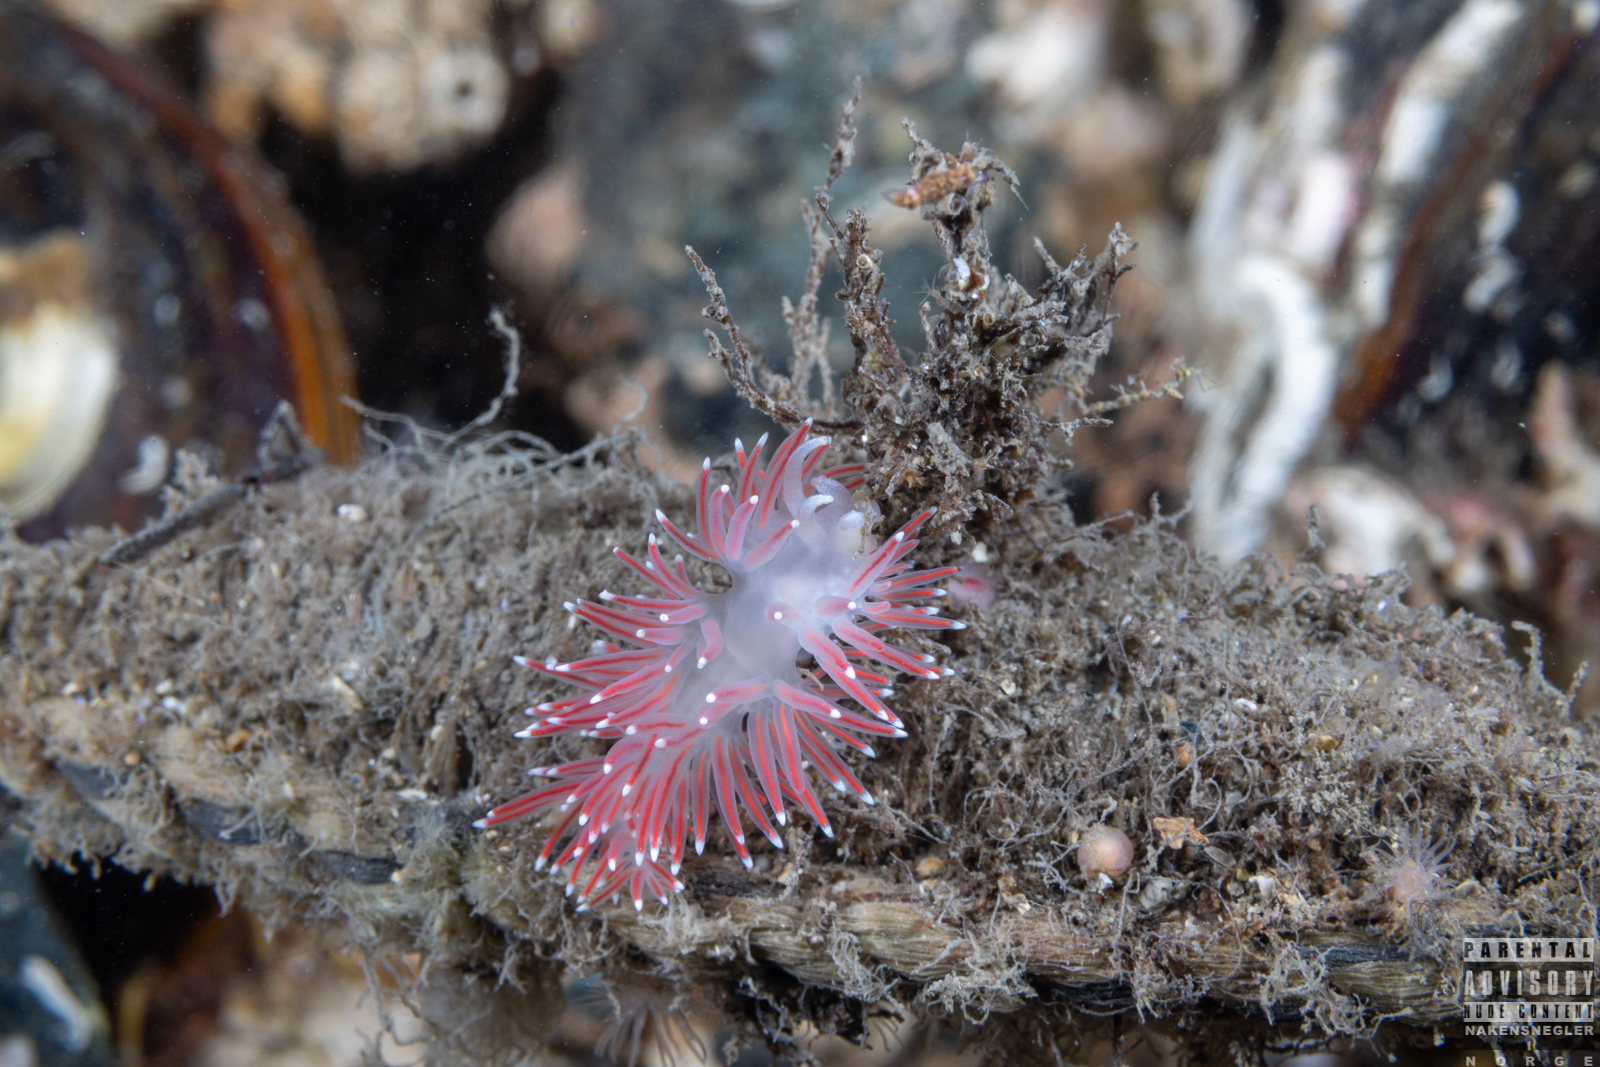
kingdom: Animalia
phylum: Mollusca
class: Gastropoda
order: Nudibranchia
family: Flabellinidae
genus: Carronella
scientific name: Carronella pellucida
